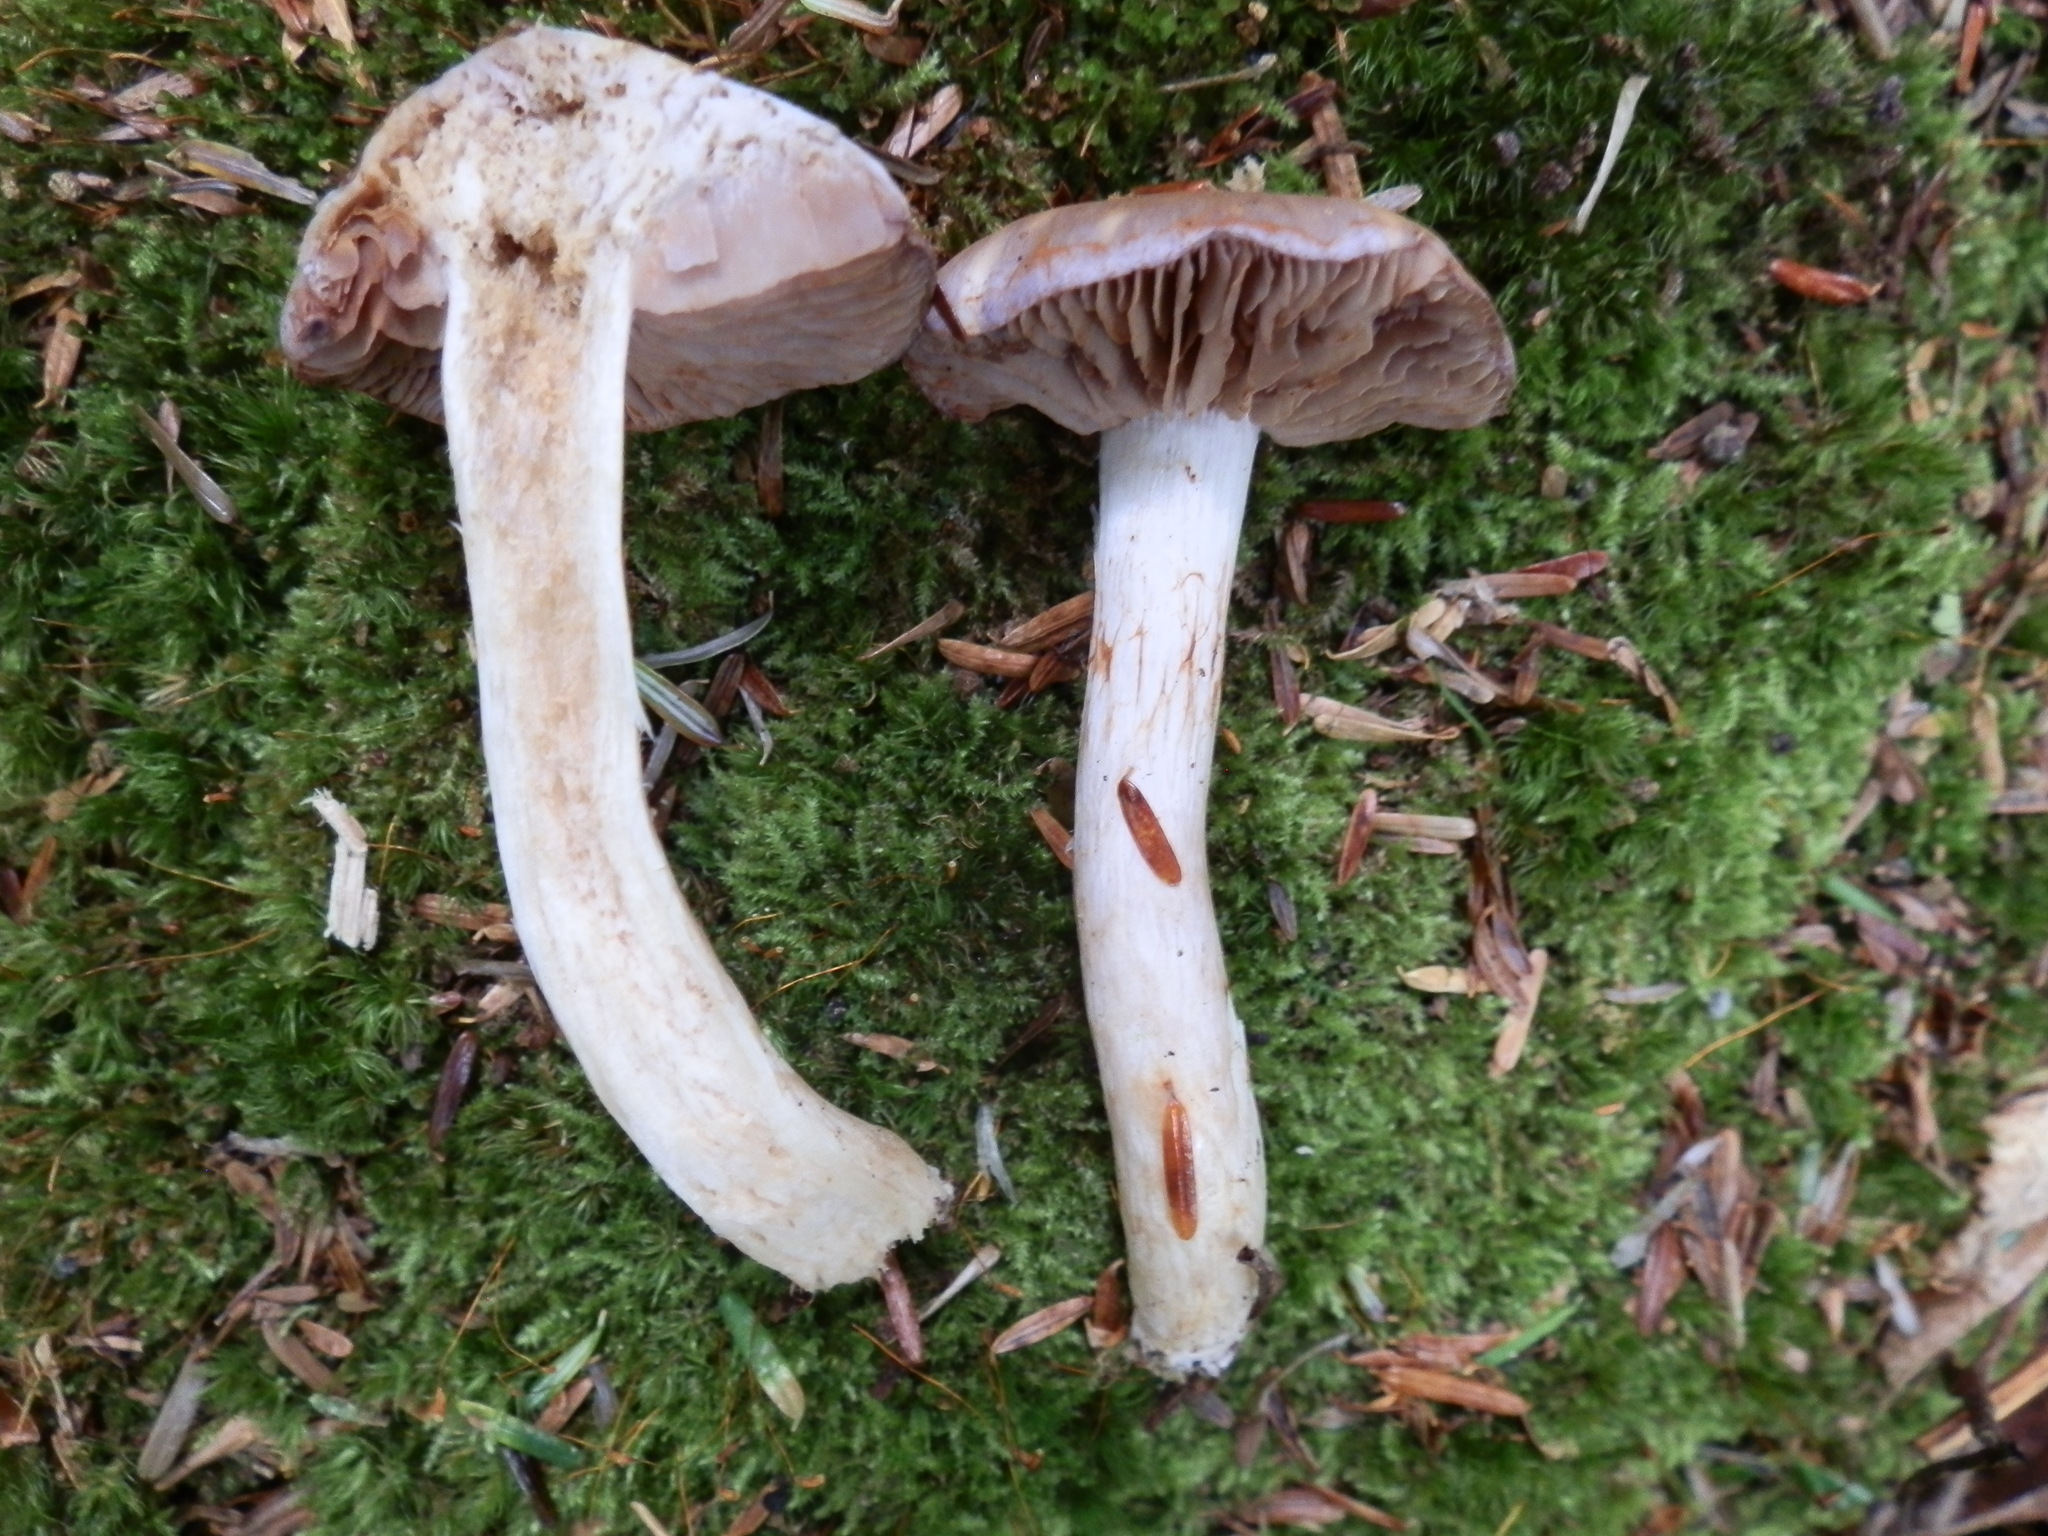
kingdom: Fungi
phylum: Basidiomycota
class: Agaricomycetes
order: Agaricales
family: Cortinariaceae
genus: Cortinarius
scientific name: Cortinarius iodes
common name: Viscid violet cort
